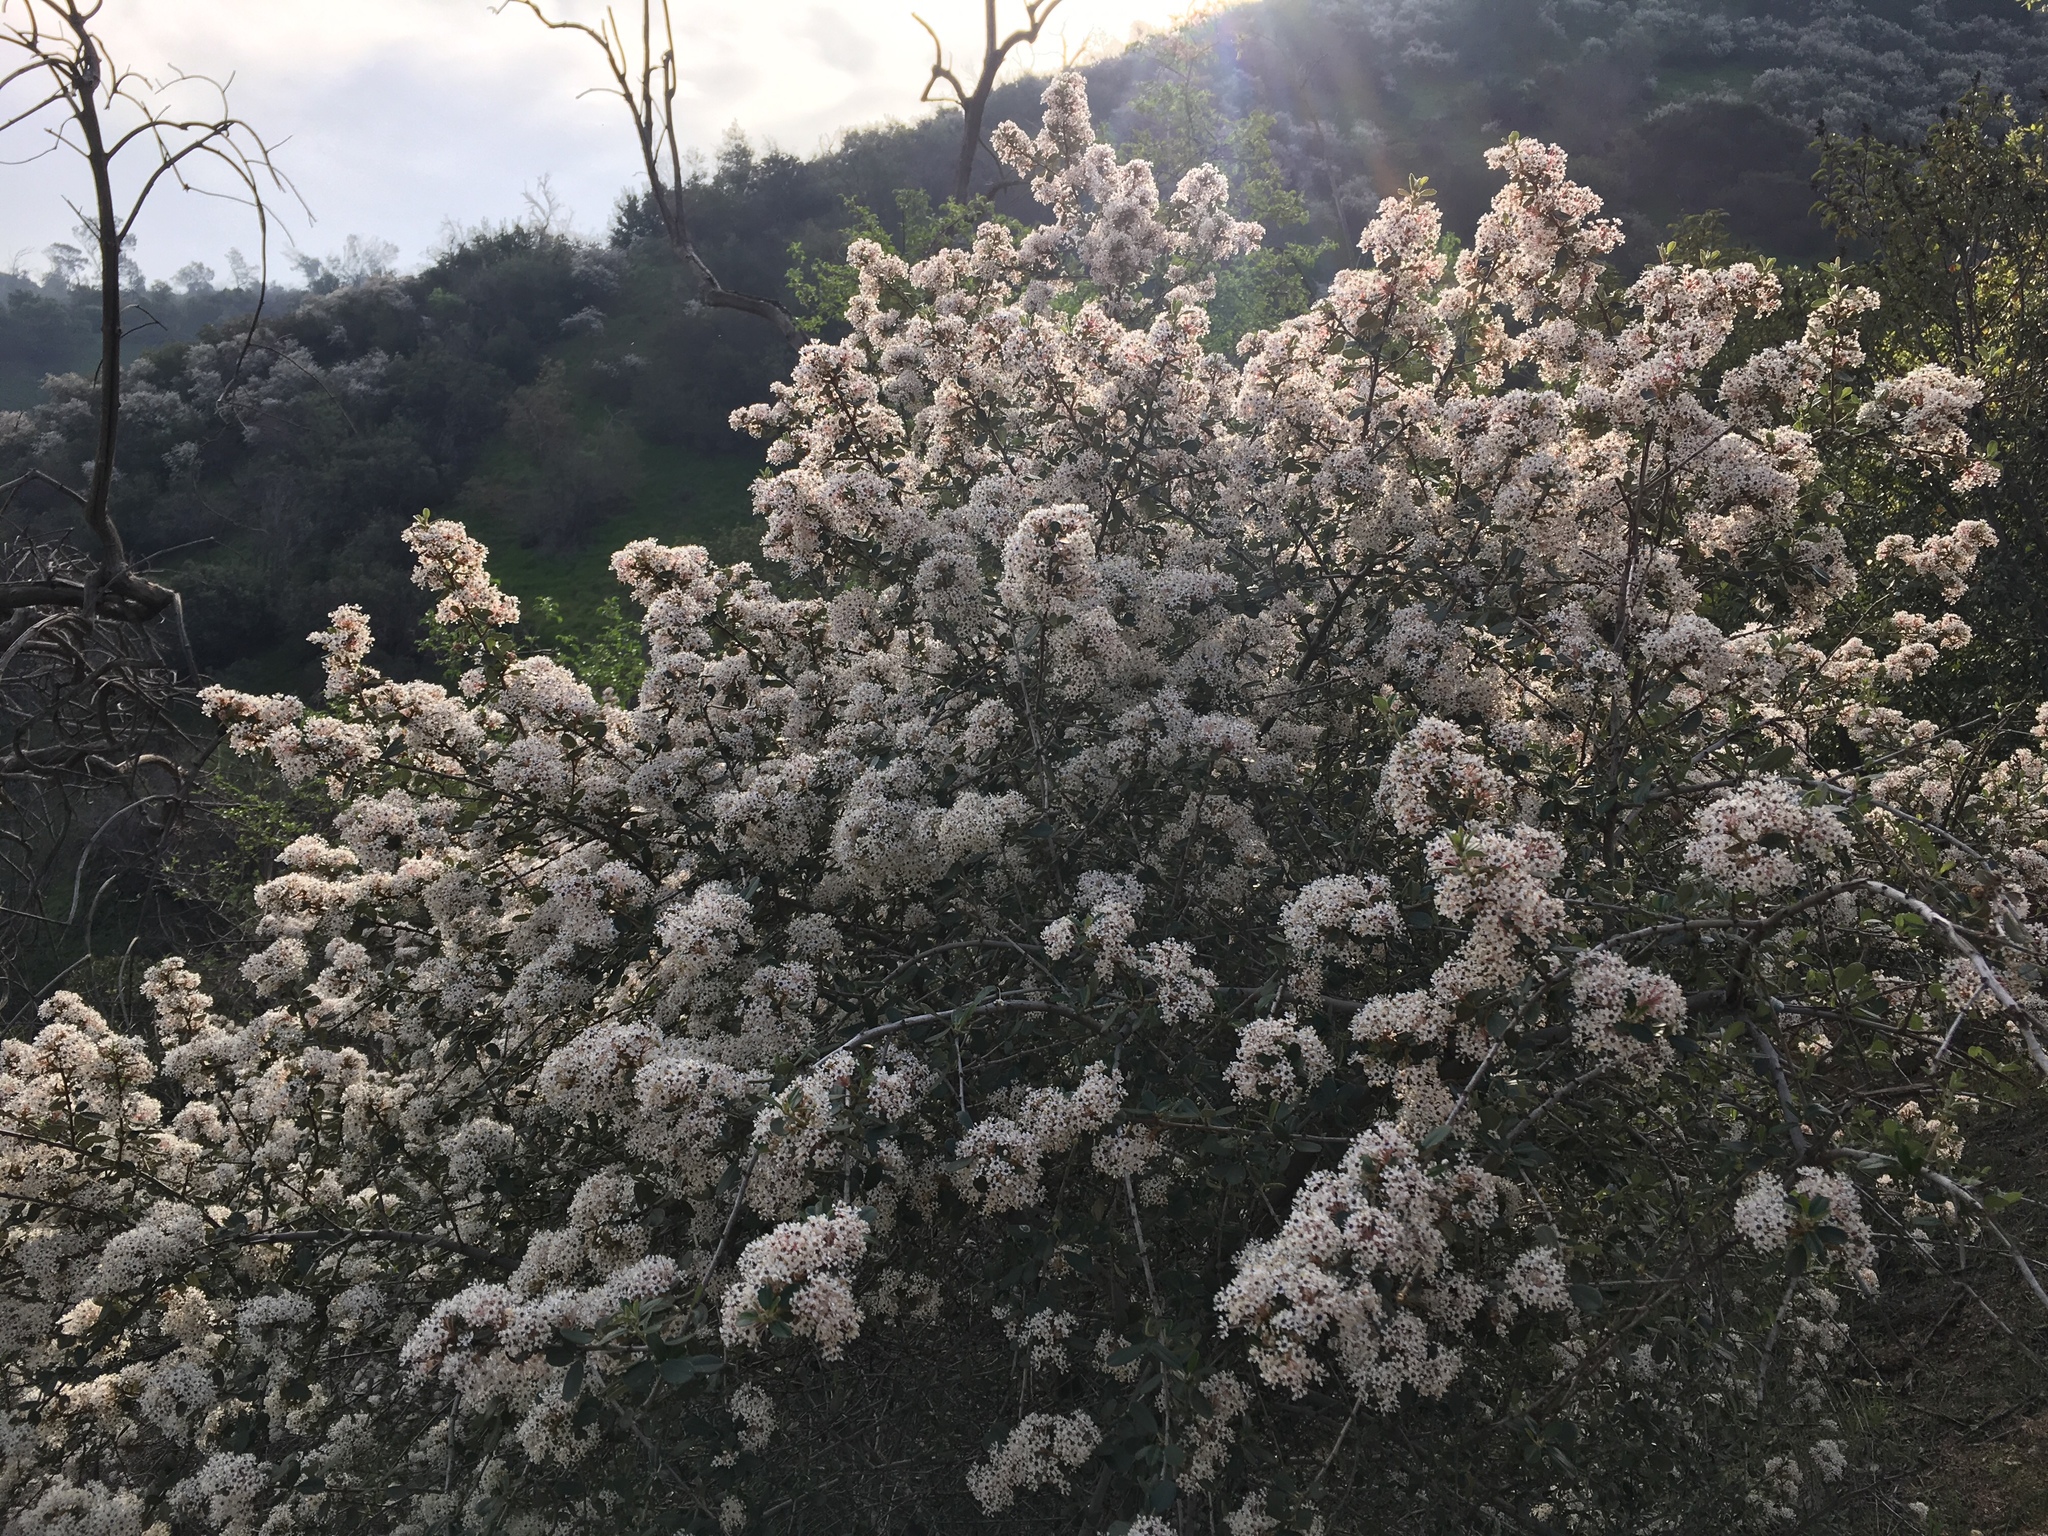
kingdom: Plantae
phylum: Tracheophyta
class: Magnoliopsida
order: Rosales
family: Rhamnaceae
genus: Ceanothus
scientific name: Ceanothus megacarpus
